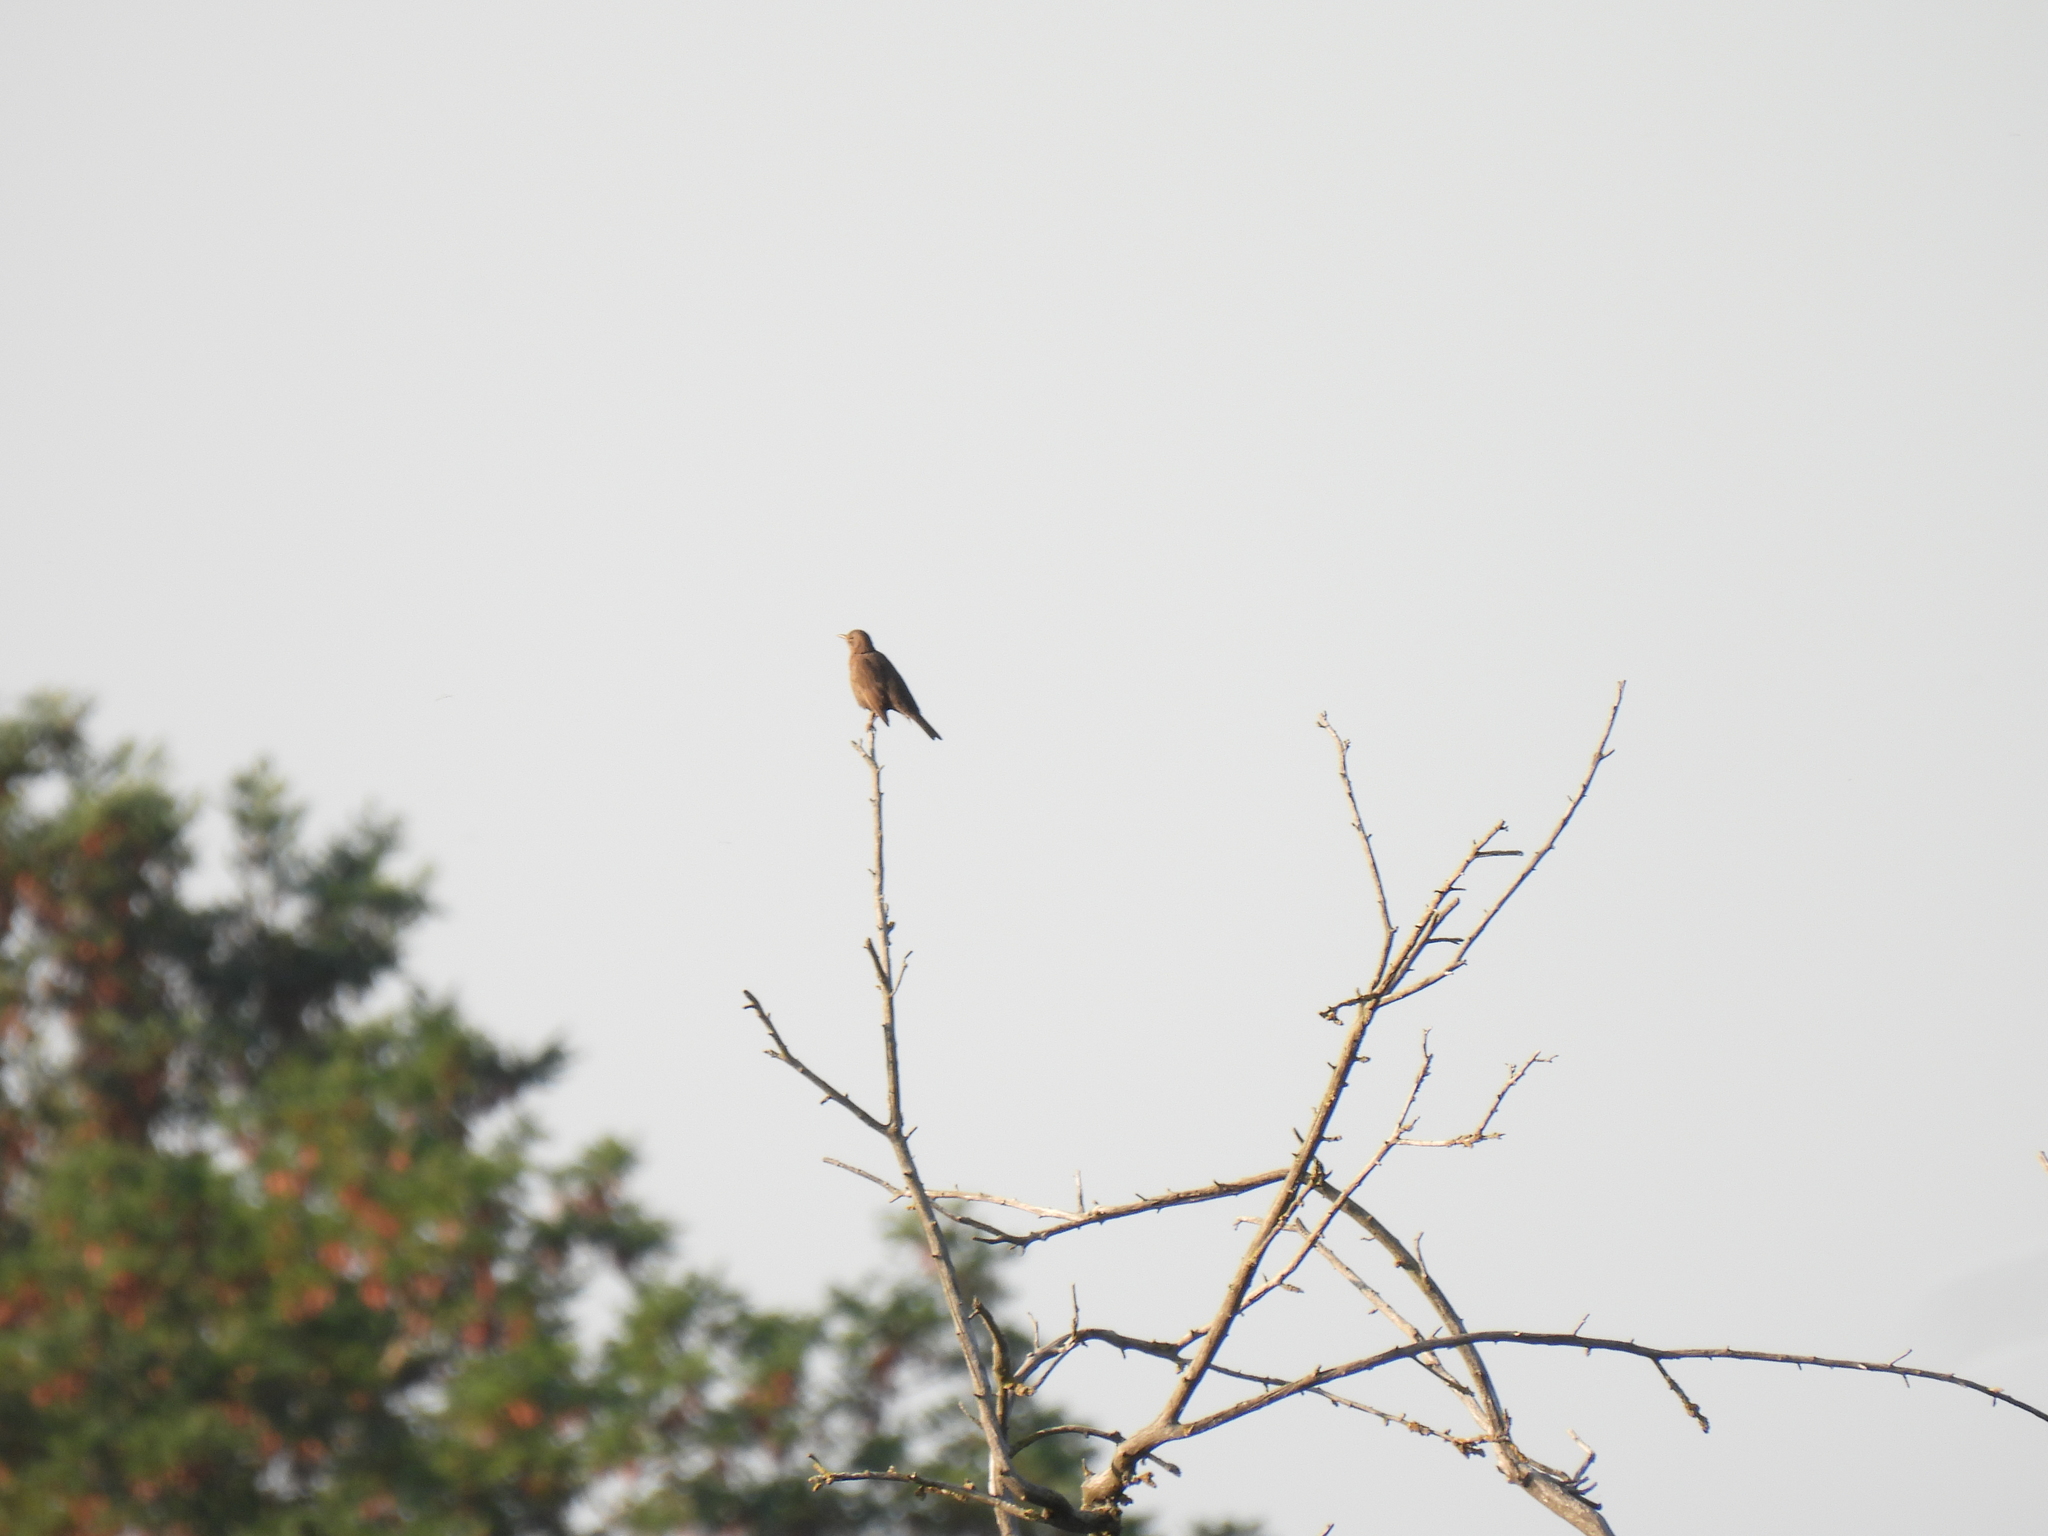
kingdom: Animalia
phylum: Chordata
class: Aves
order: Passeriformes
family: Turdidae
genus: Turdus
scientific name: Turdus merula
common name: Common blackbird
